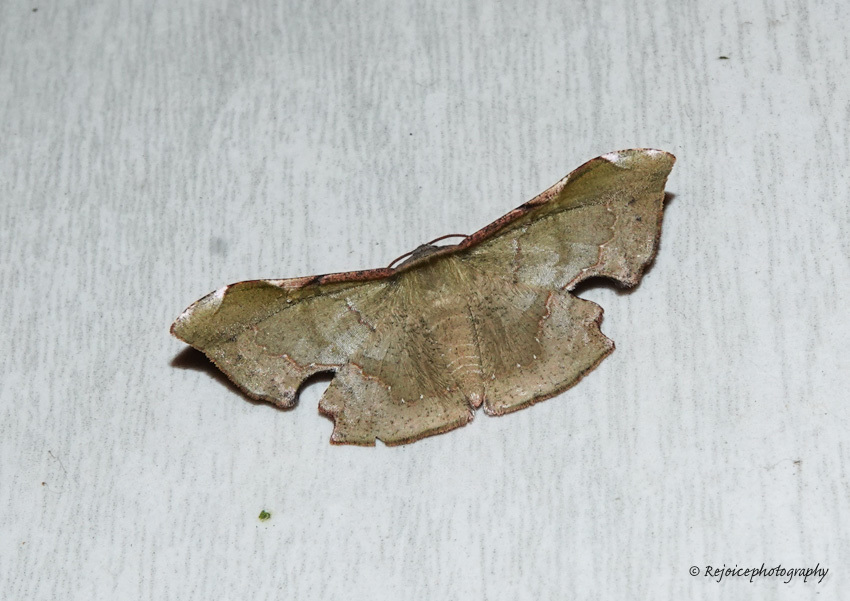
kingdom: Animalia
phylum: Arthropoda
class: Insecta
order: Lepidoptera
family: Geometridae
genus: Fascellina
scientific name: Fascellina chromataria
